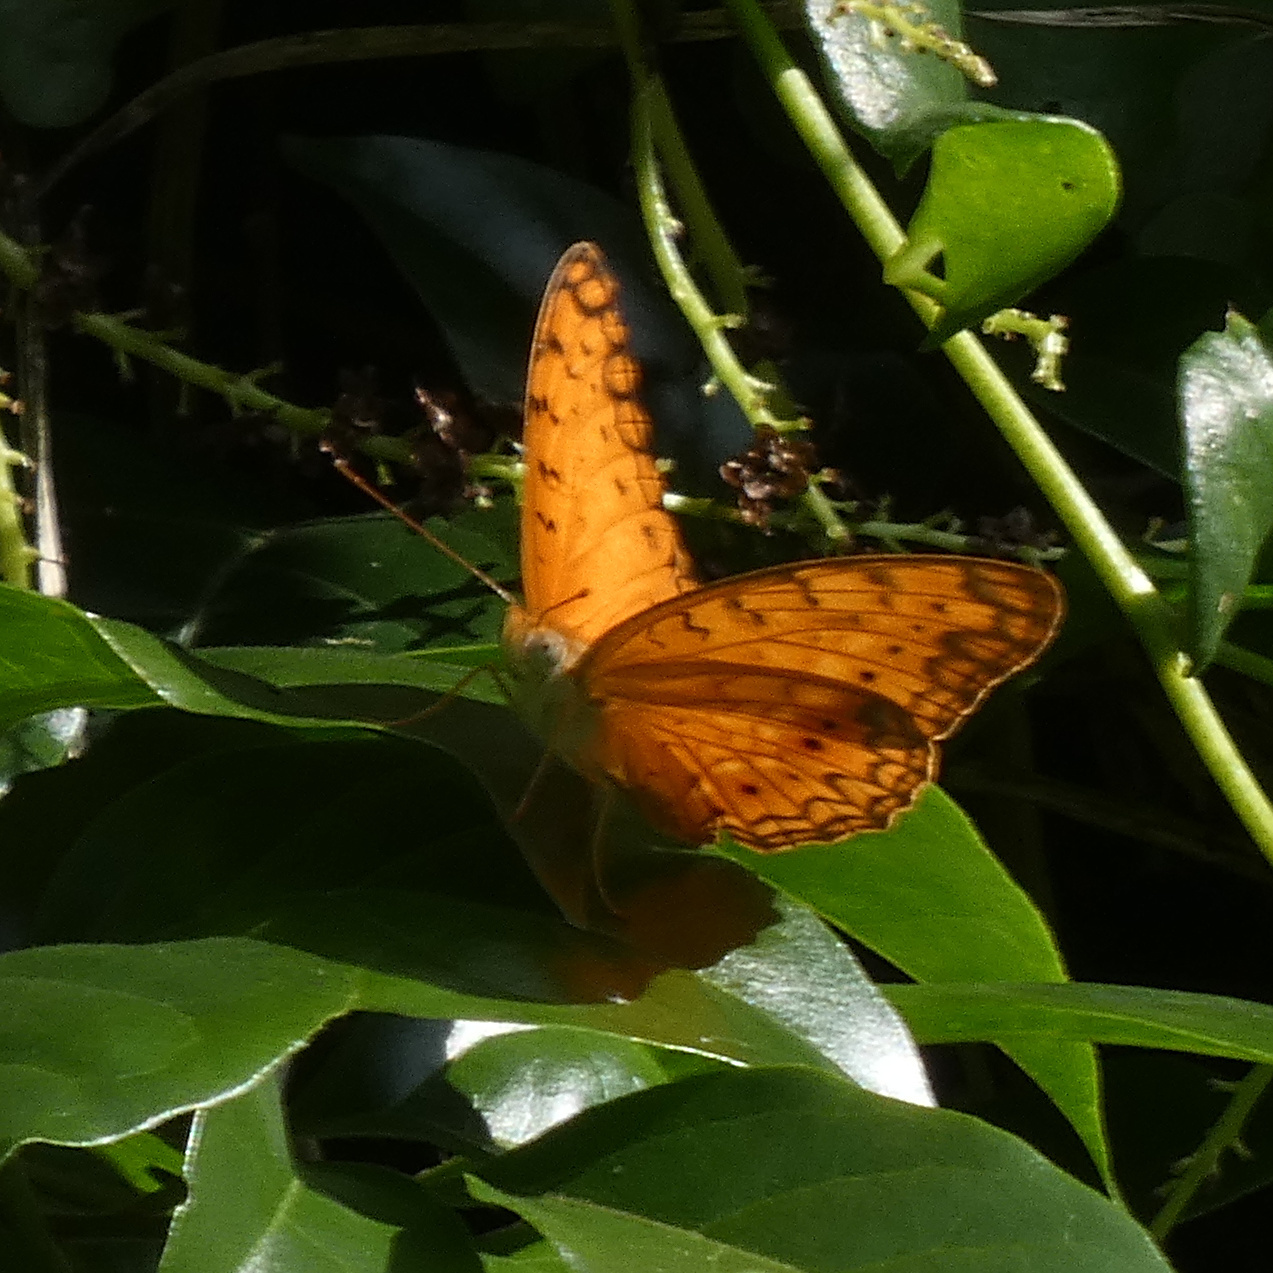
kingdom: Animalia
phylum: Arthropoda
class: Insecta
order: Lepidoptera
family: Nymphalidae
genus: Phalanta
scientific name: Phalanta phalantha
